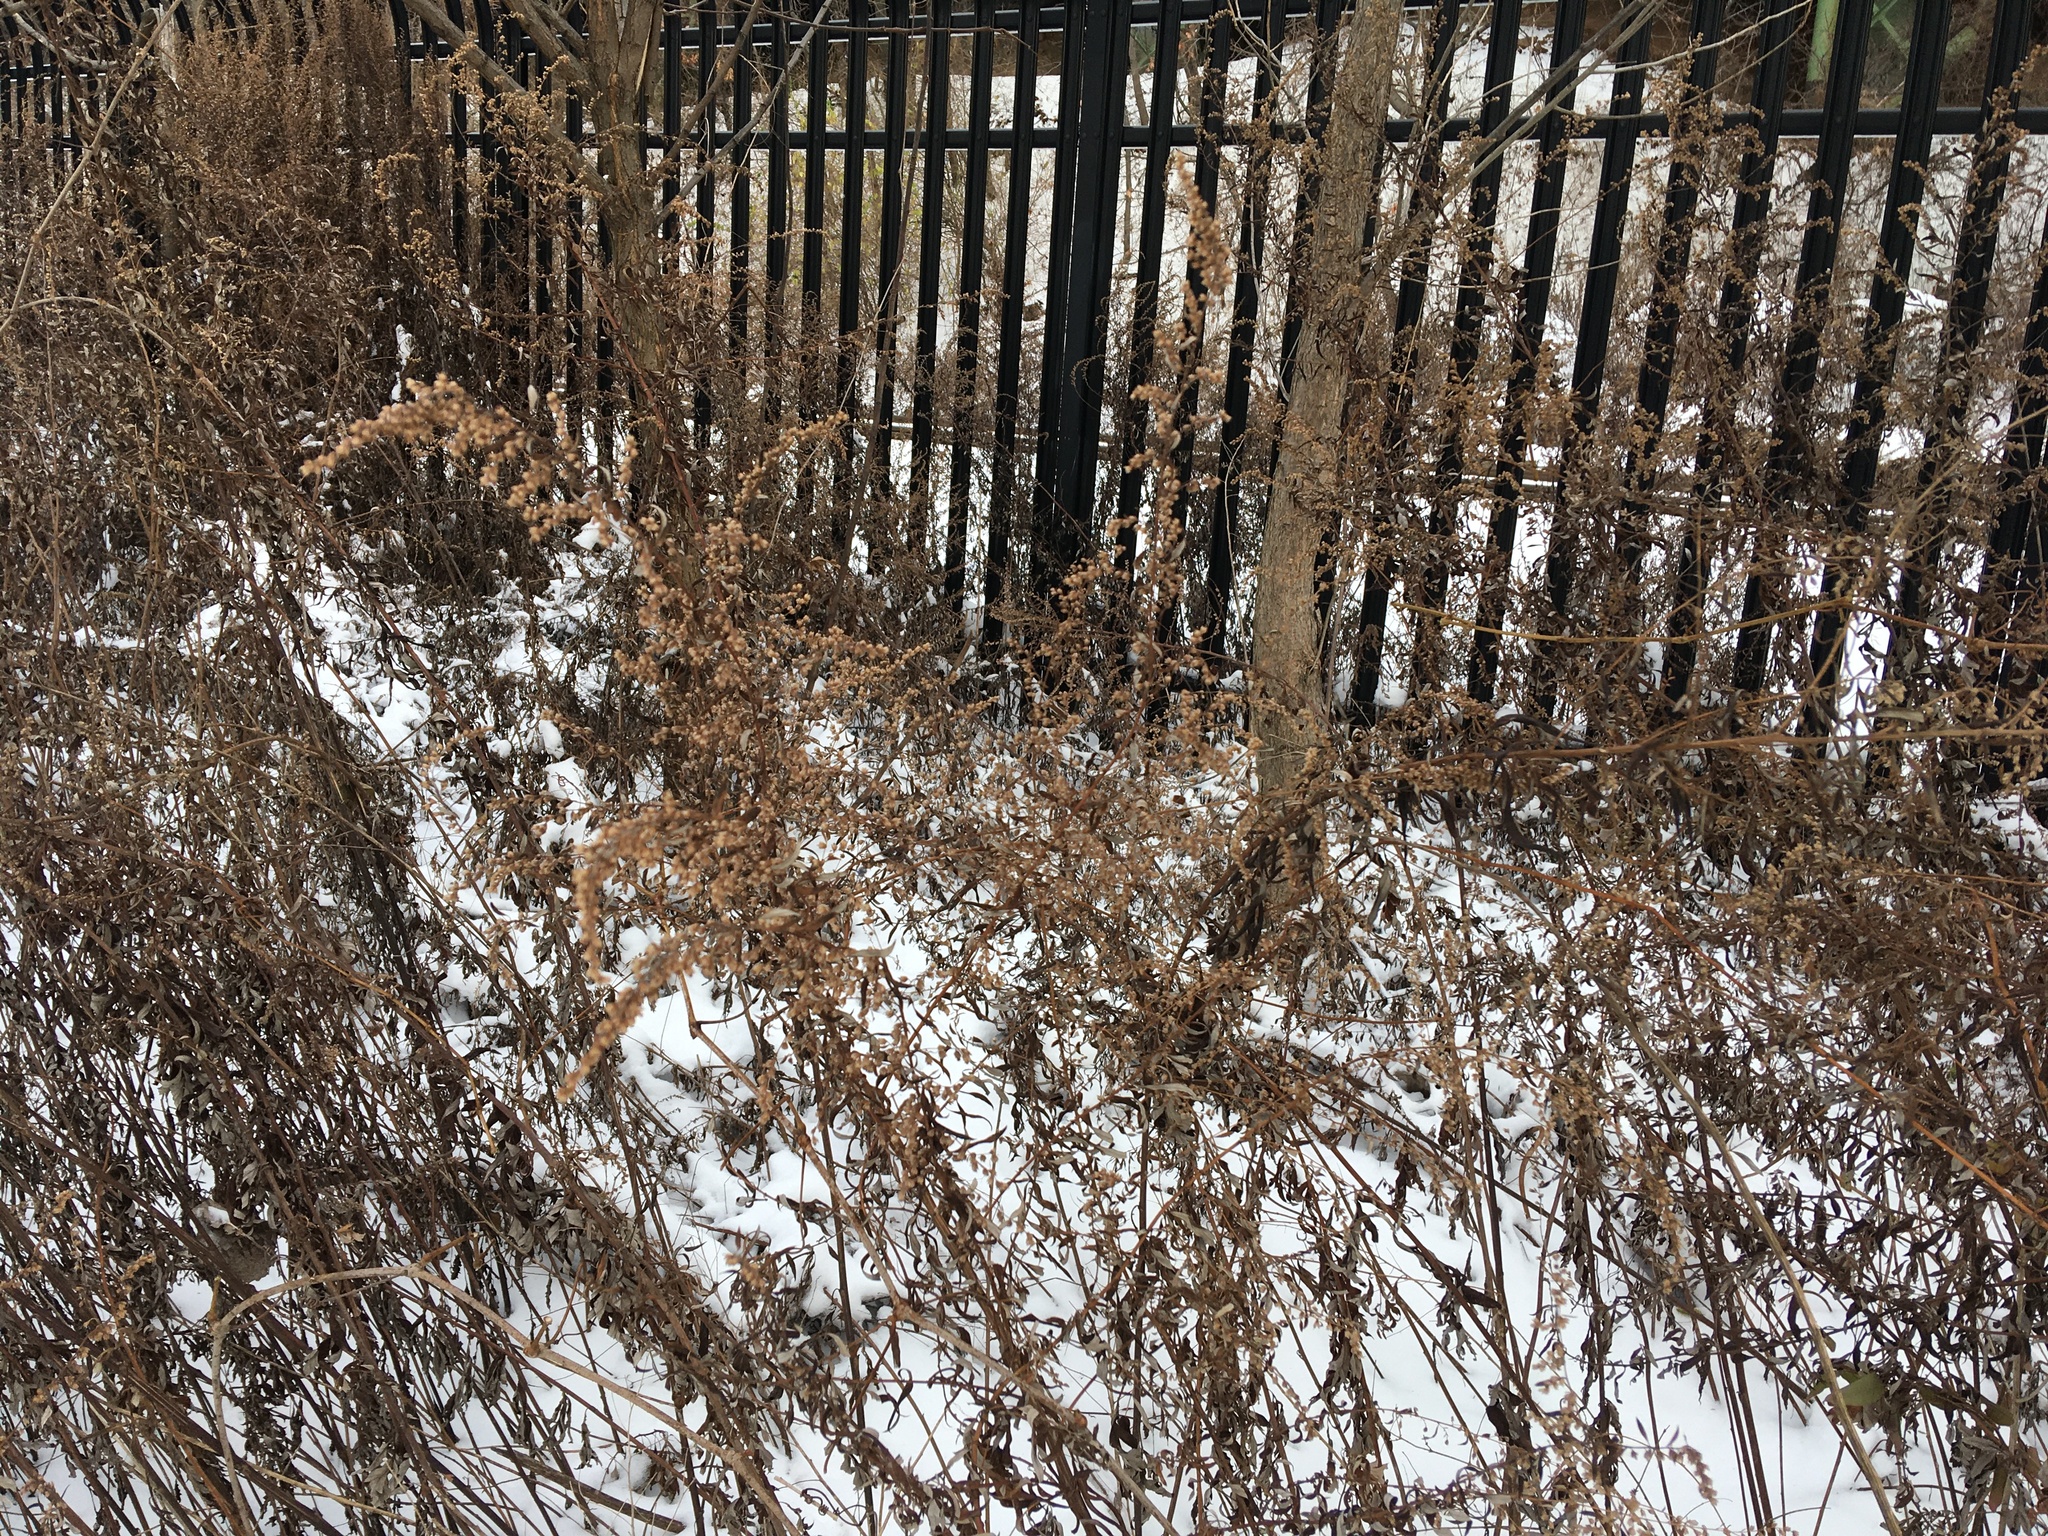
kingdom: Plantae
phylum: Tracheophyta
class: Magnoliopsida
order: Asterales
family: Asteraceae
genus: Artemisia
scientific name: Artemisia vulgaris
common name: Mugwort
